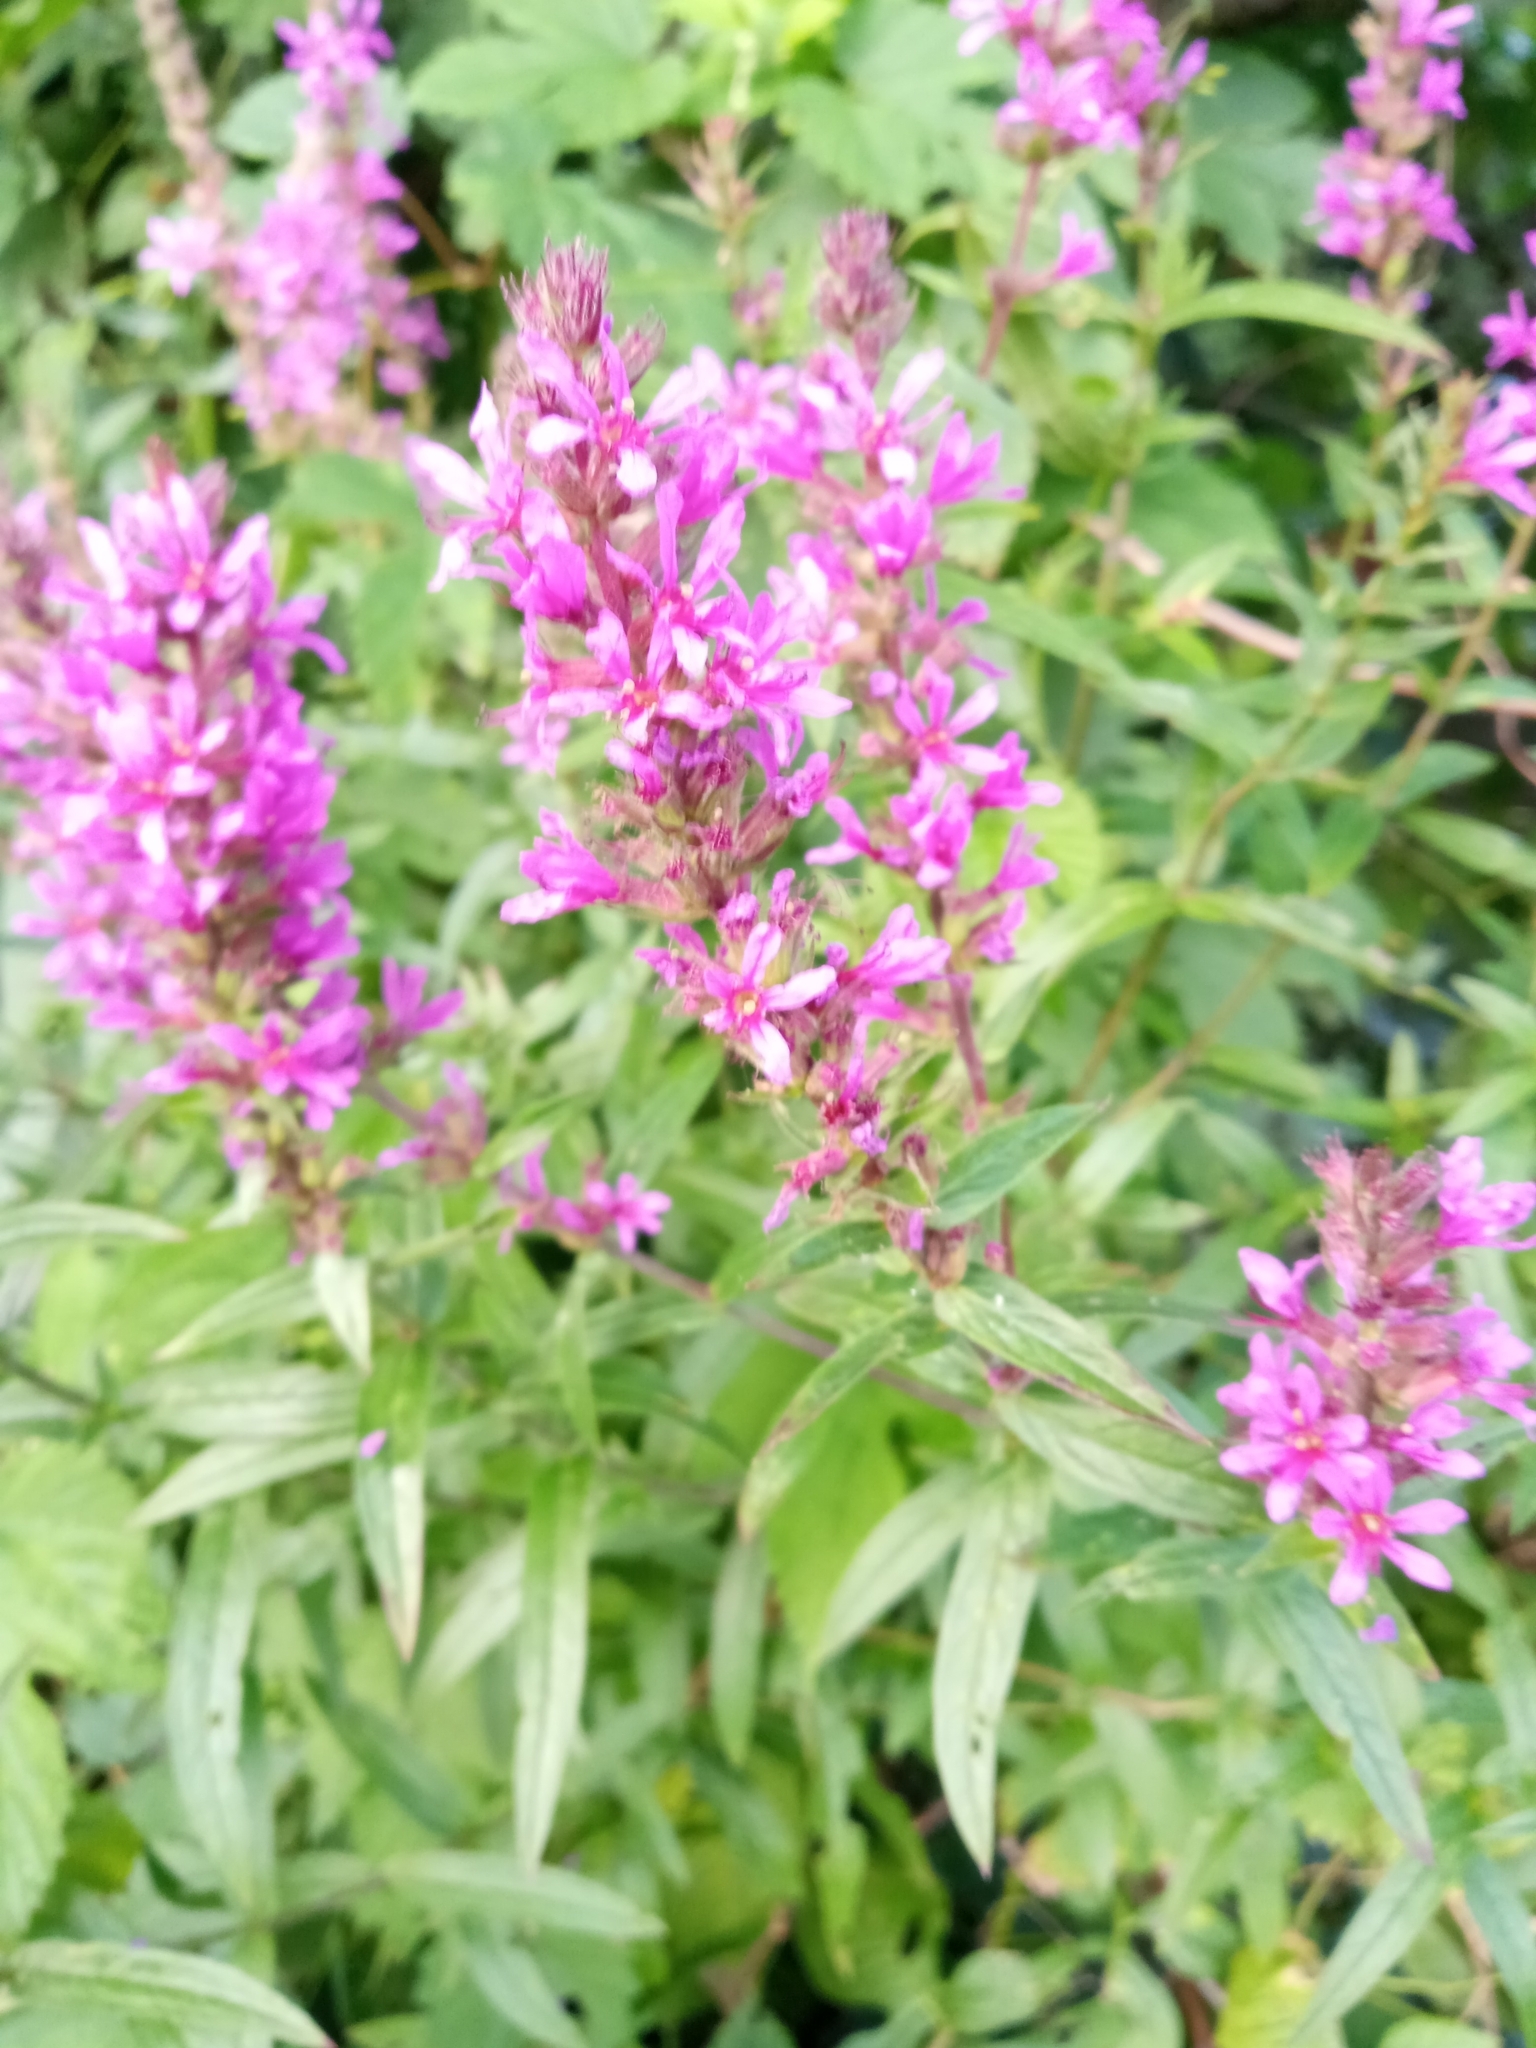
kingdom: Plantae
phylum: Tracheophyta
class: Magnoliopsida
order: Myrtales
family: Lythraceae
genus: Lythrum
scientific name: Lythrum salicaria
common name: Purple loosestrife
